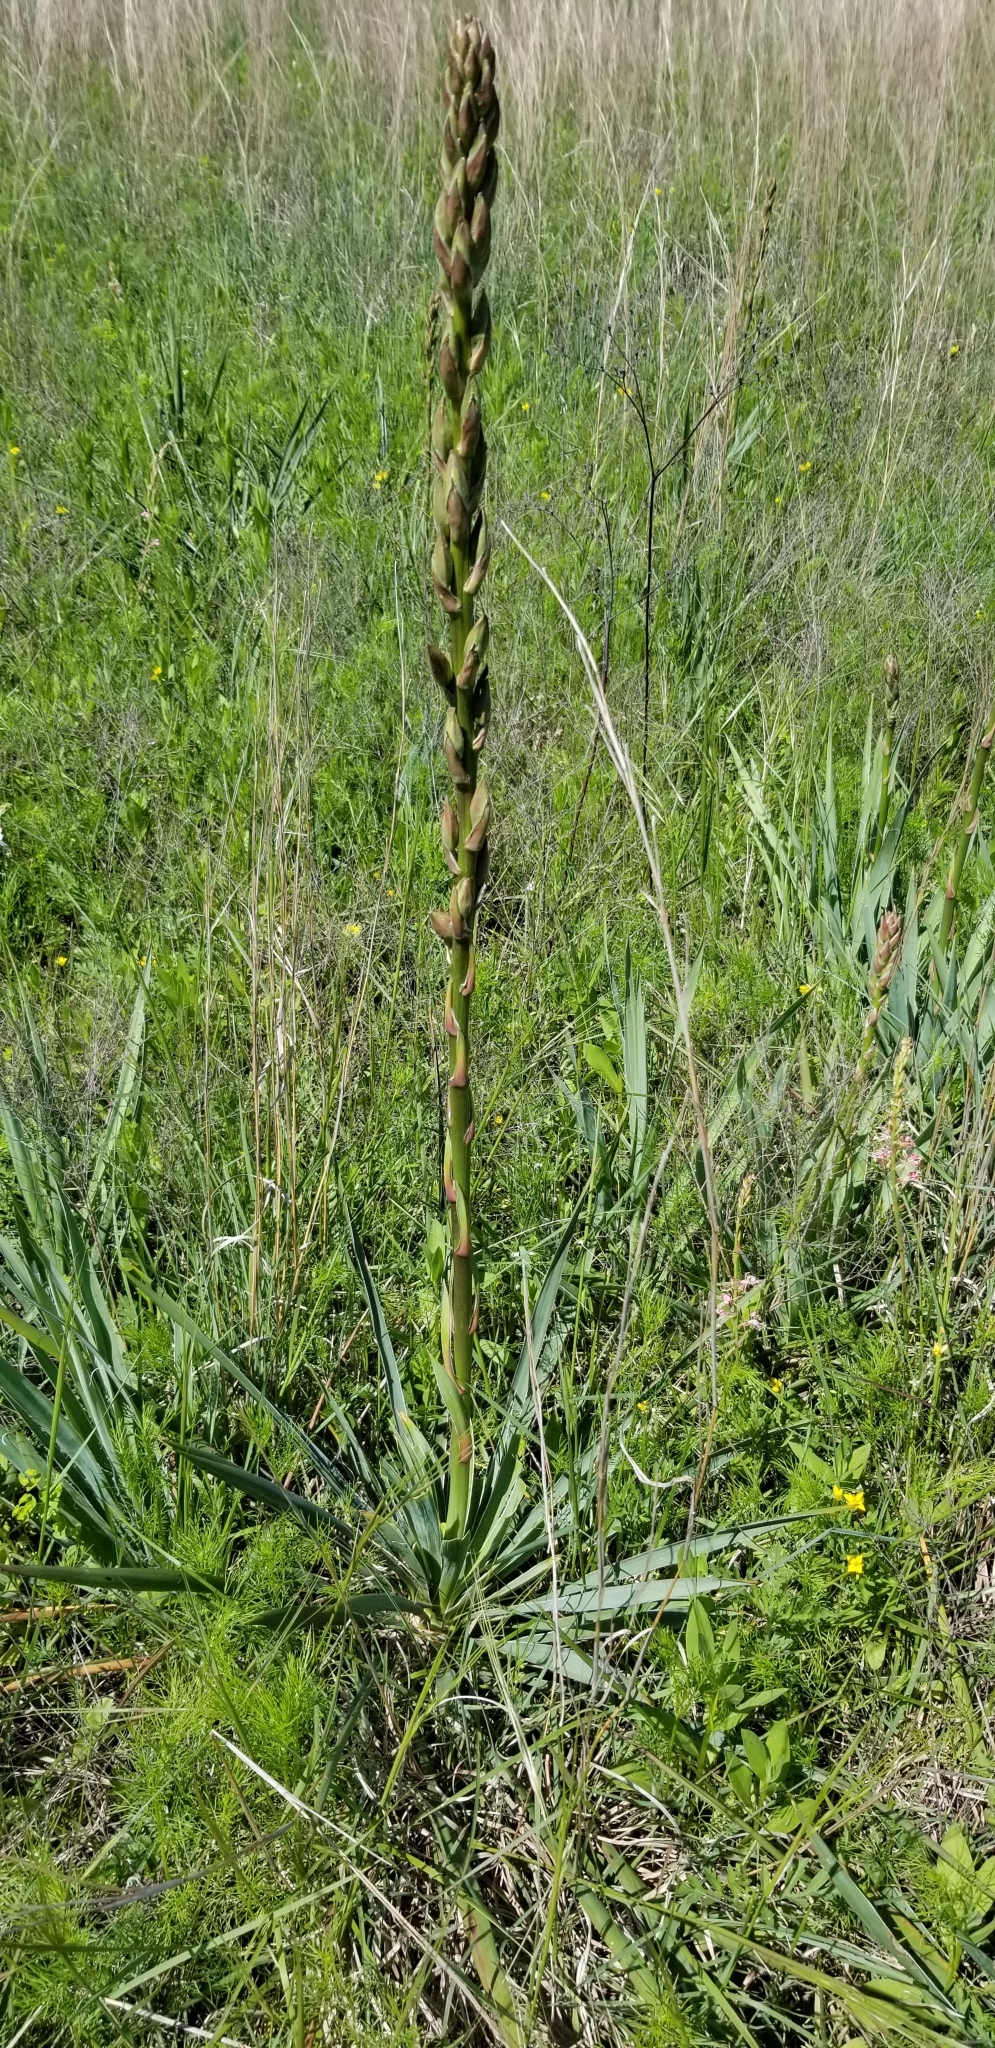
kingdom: Plantae
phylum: Tracheophyta
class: Liliopsida
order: Asparagales
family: Asparagaceae
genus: Yucca
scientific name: Yucca arkansana
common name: Arkansas yucca
